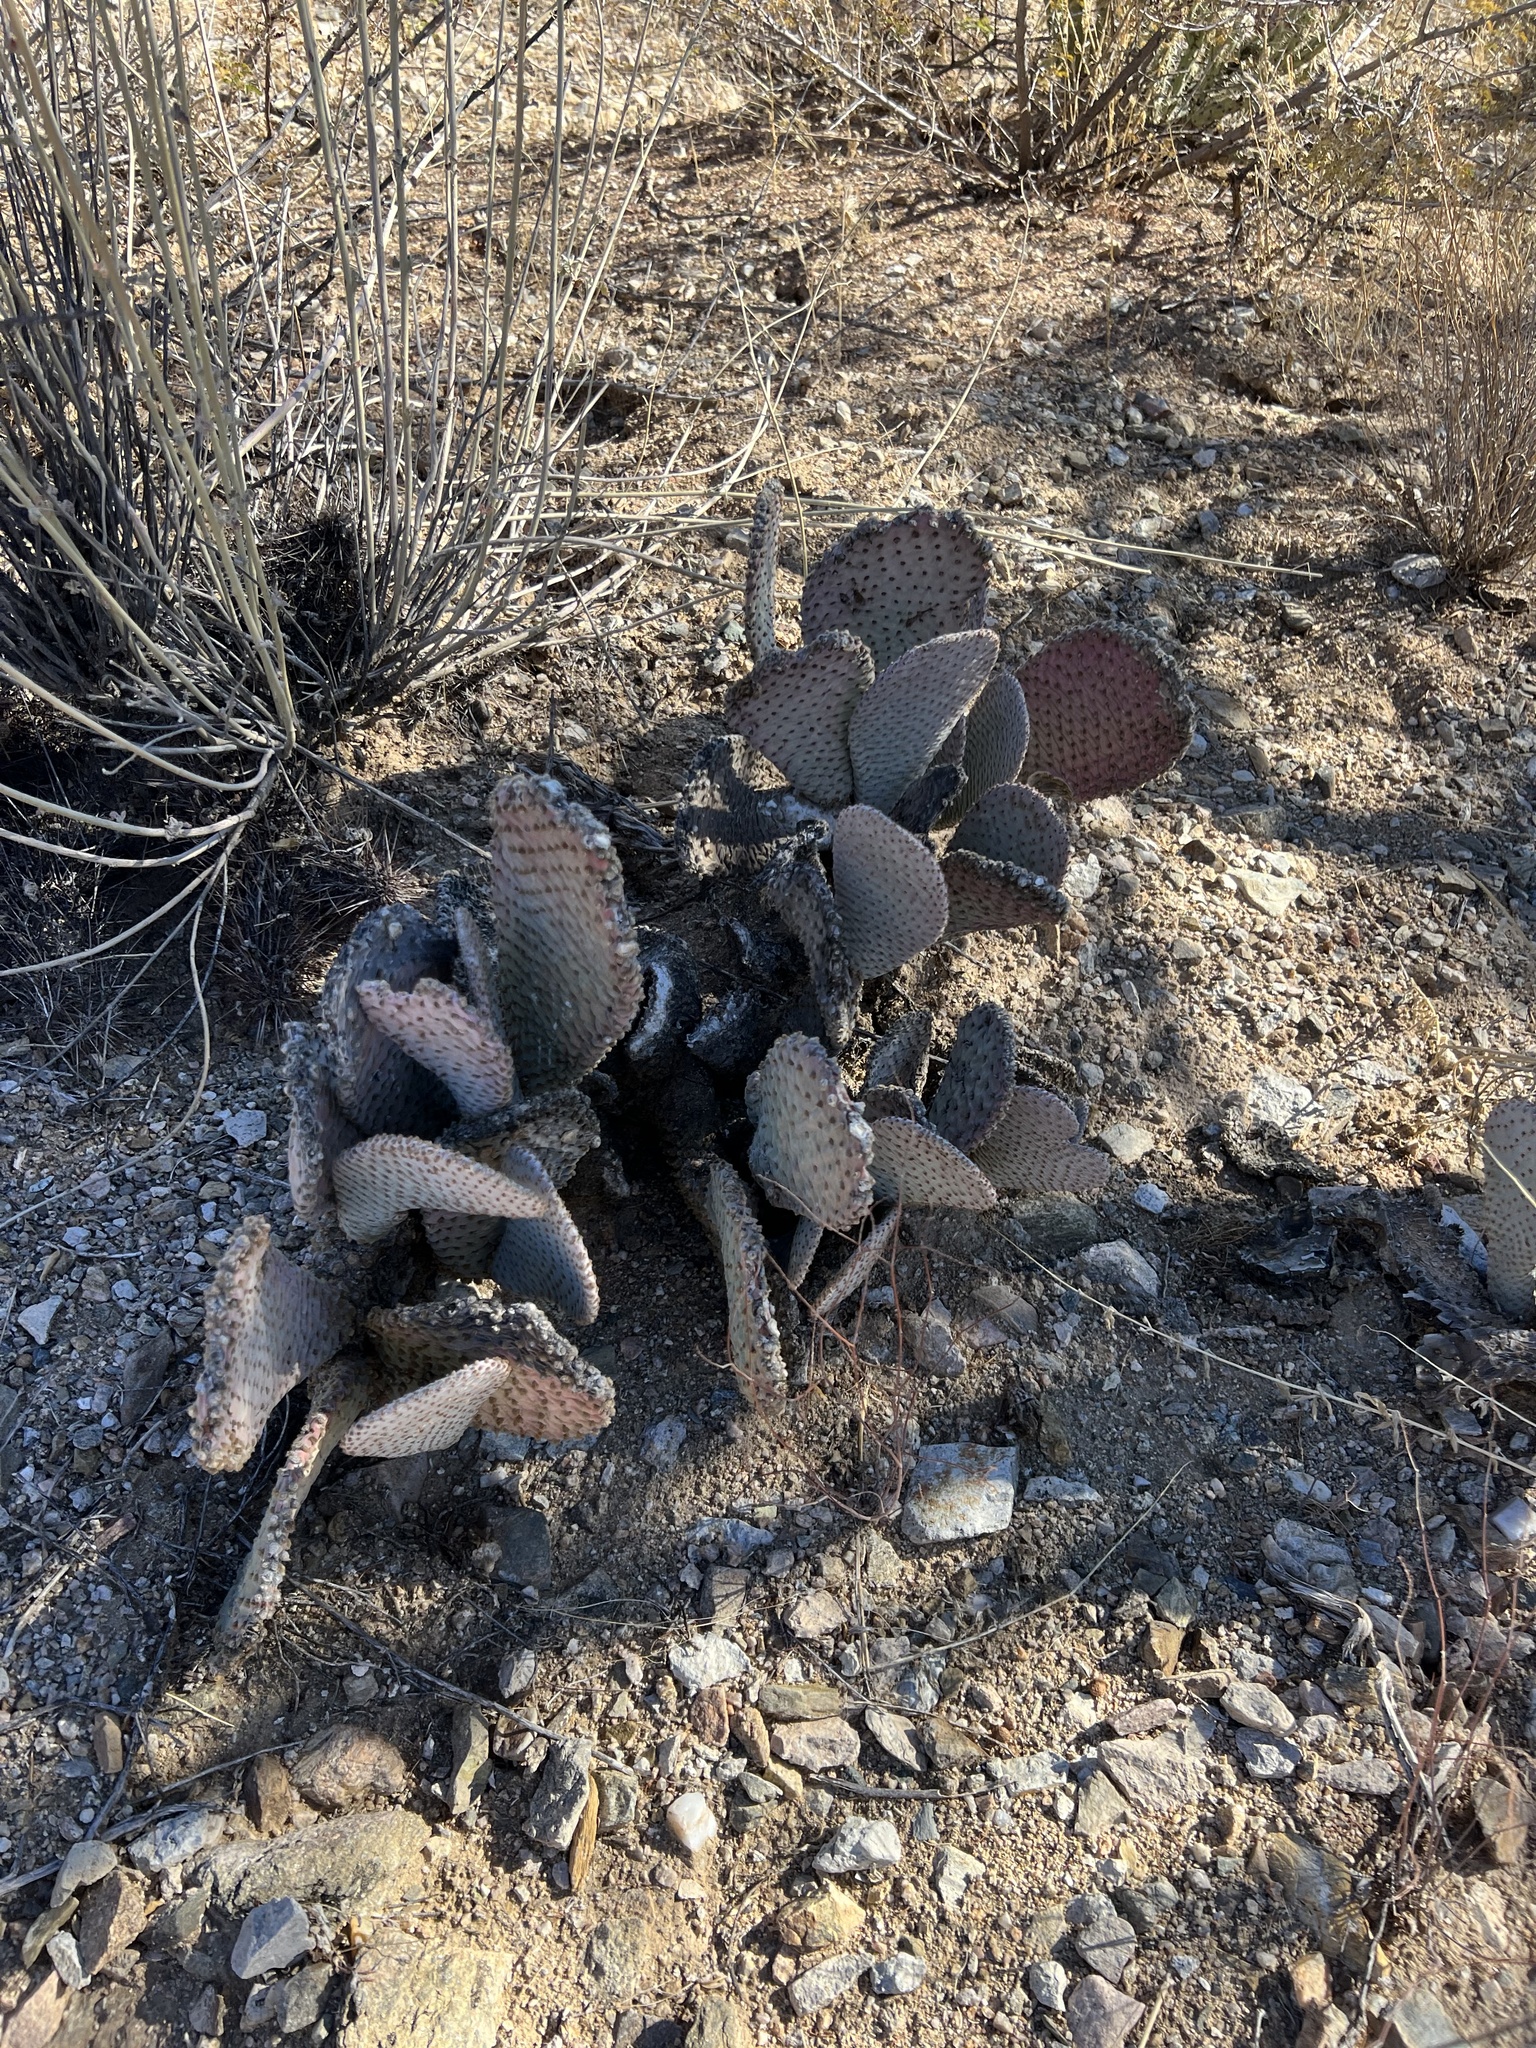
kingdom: Plantae
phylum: Tracheophyta
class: Magnoliopsida
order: Caryophyllales
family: Cactaceae
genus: Opuntia
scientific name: Opuntia basilaris
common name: Beavertail prickly-pear
